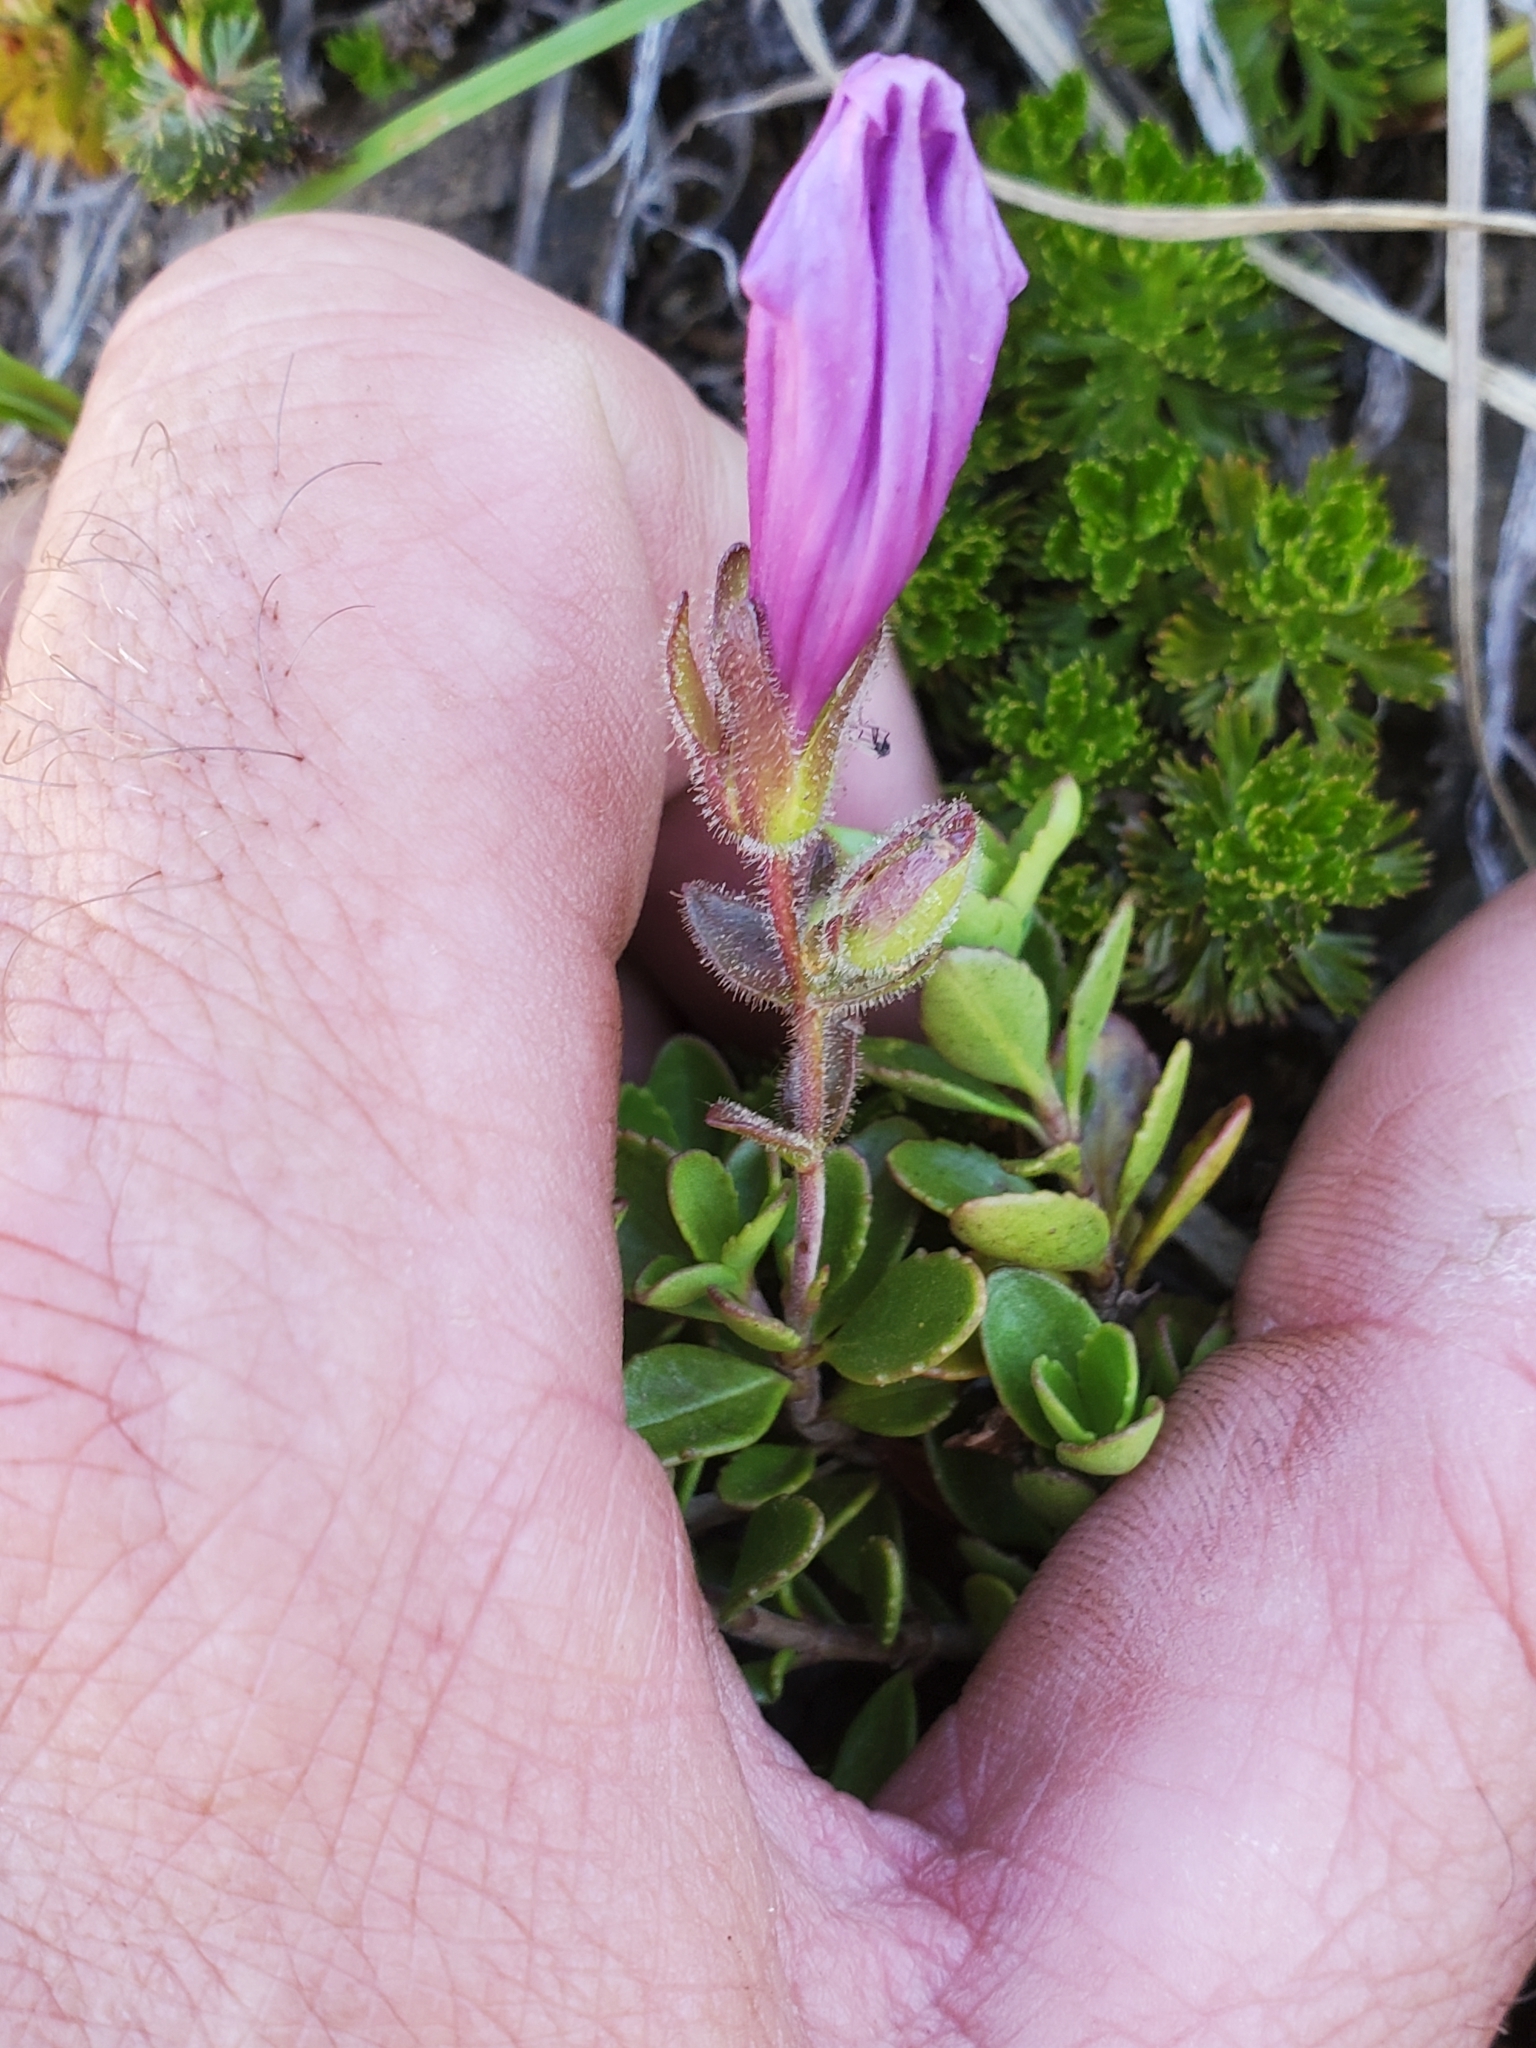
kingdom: Plantae
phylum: Tracheophyta
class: Magnoliopsida
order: Lamiales
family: Plantaginaceae
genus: Penstemon
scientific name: Penstemon davidsonii
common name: Davidson's penstemon
